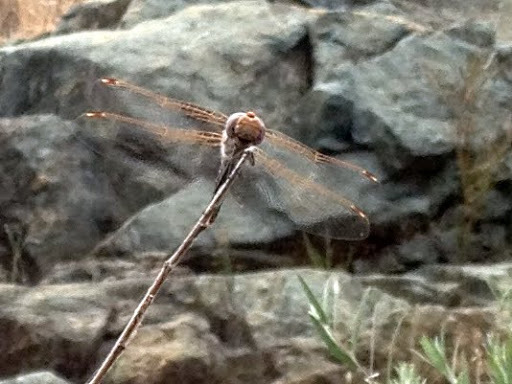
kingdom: Animalia
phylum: Arthropoda
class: Insecta
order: Odonata
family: Libellulidae
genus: Sympetrum
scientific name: Sympetrum corruptum
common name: Variegated meadowhawk
